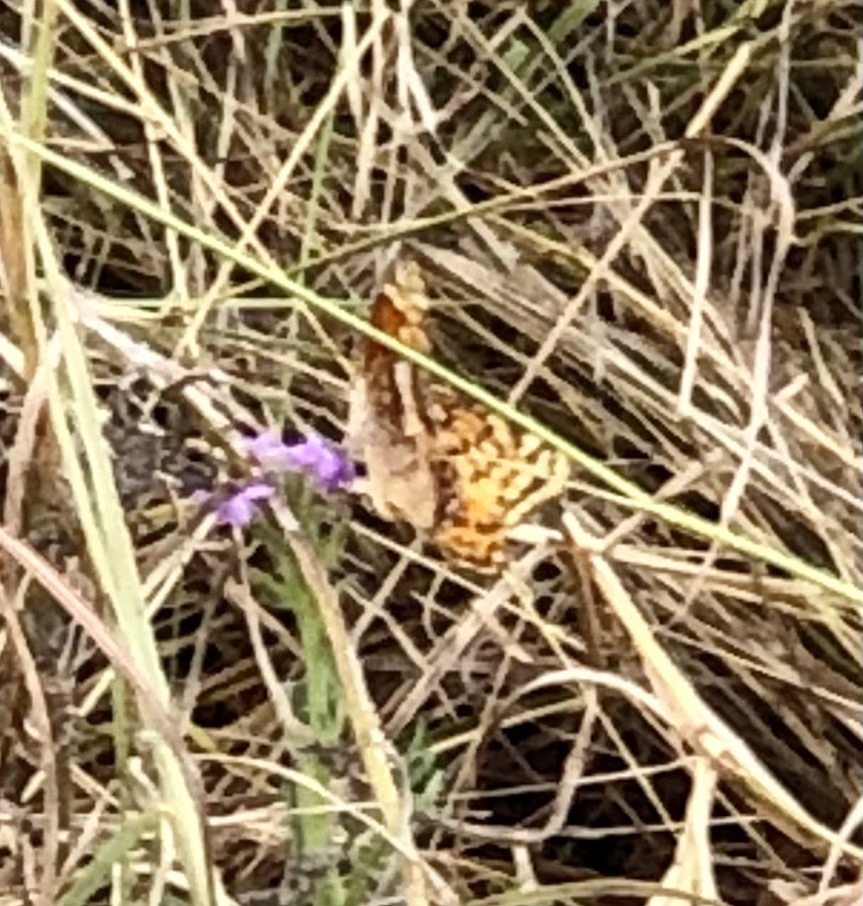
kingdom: Animalia
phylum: Arthropoda
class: Insecta
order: Lepidoptera
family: Nymphalidae
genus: Euptoieta
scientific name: Euptoieta claudia
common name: Variegated fritillary
